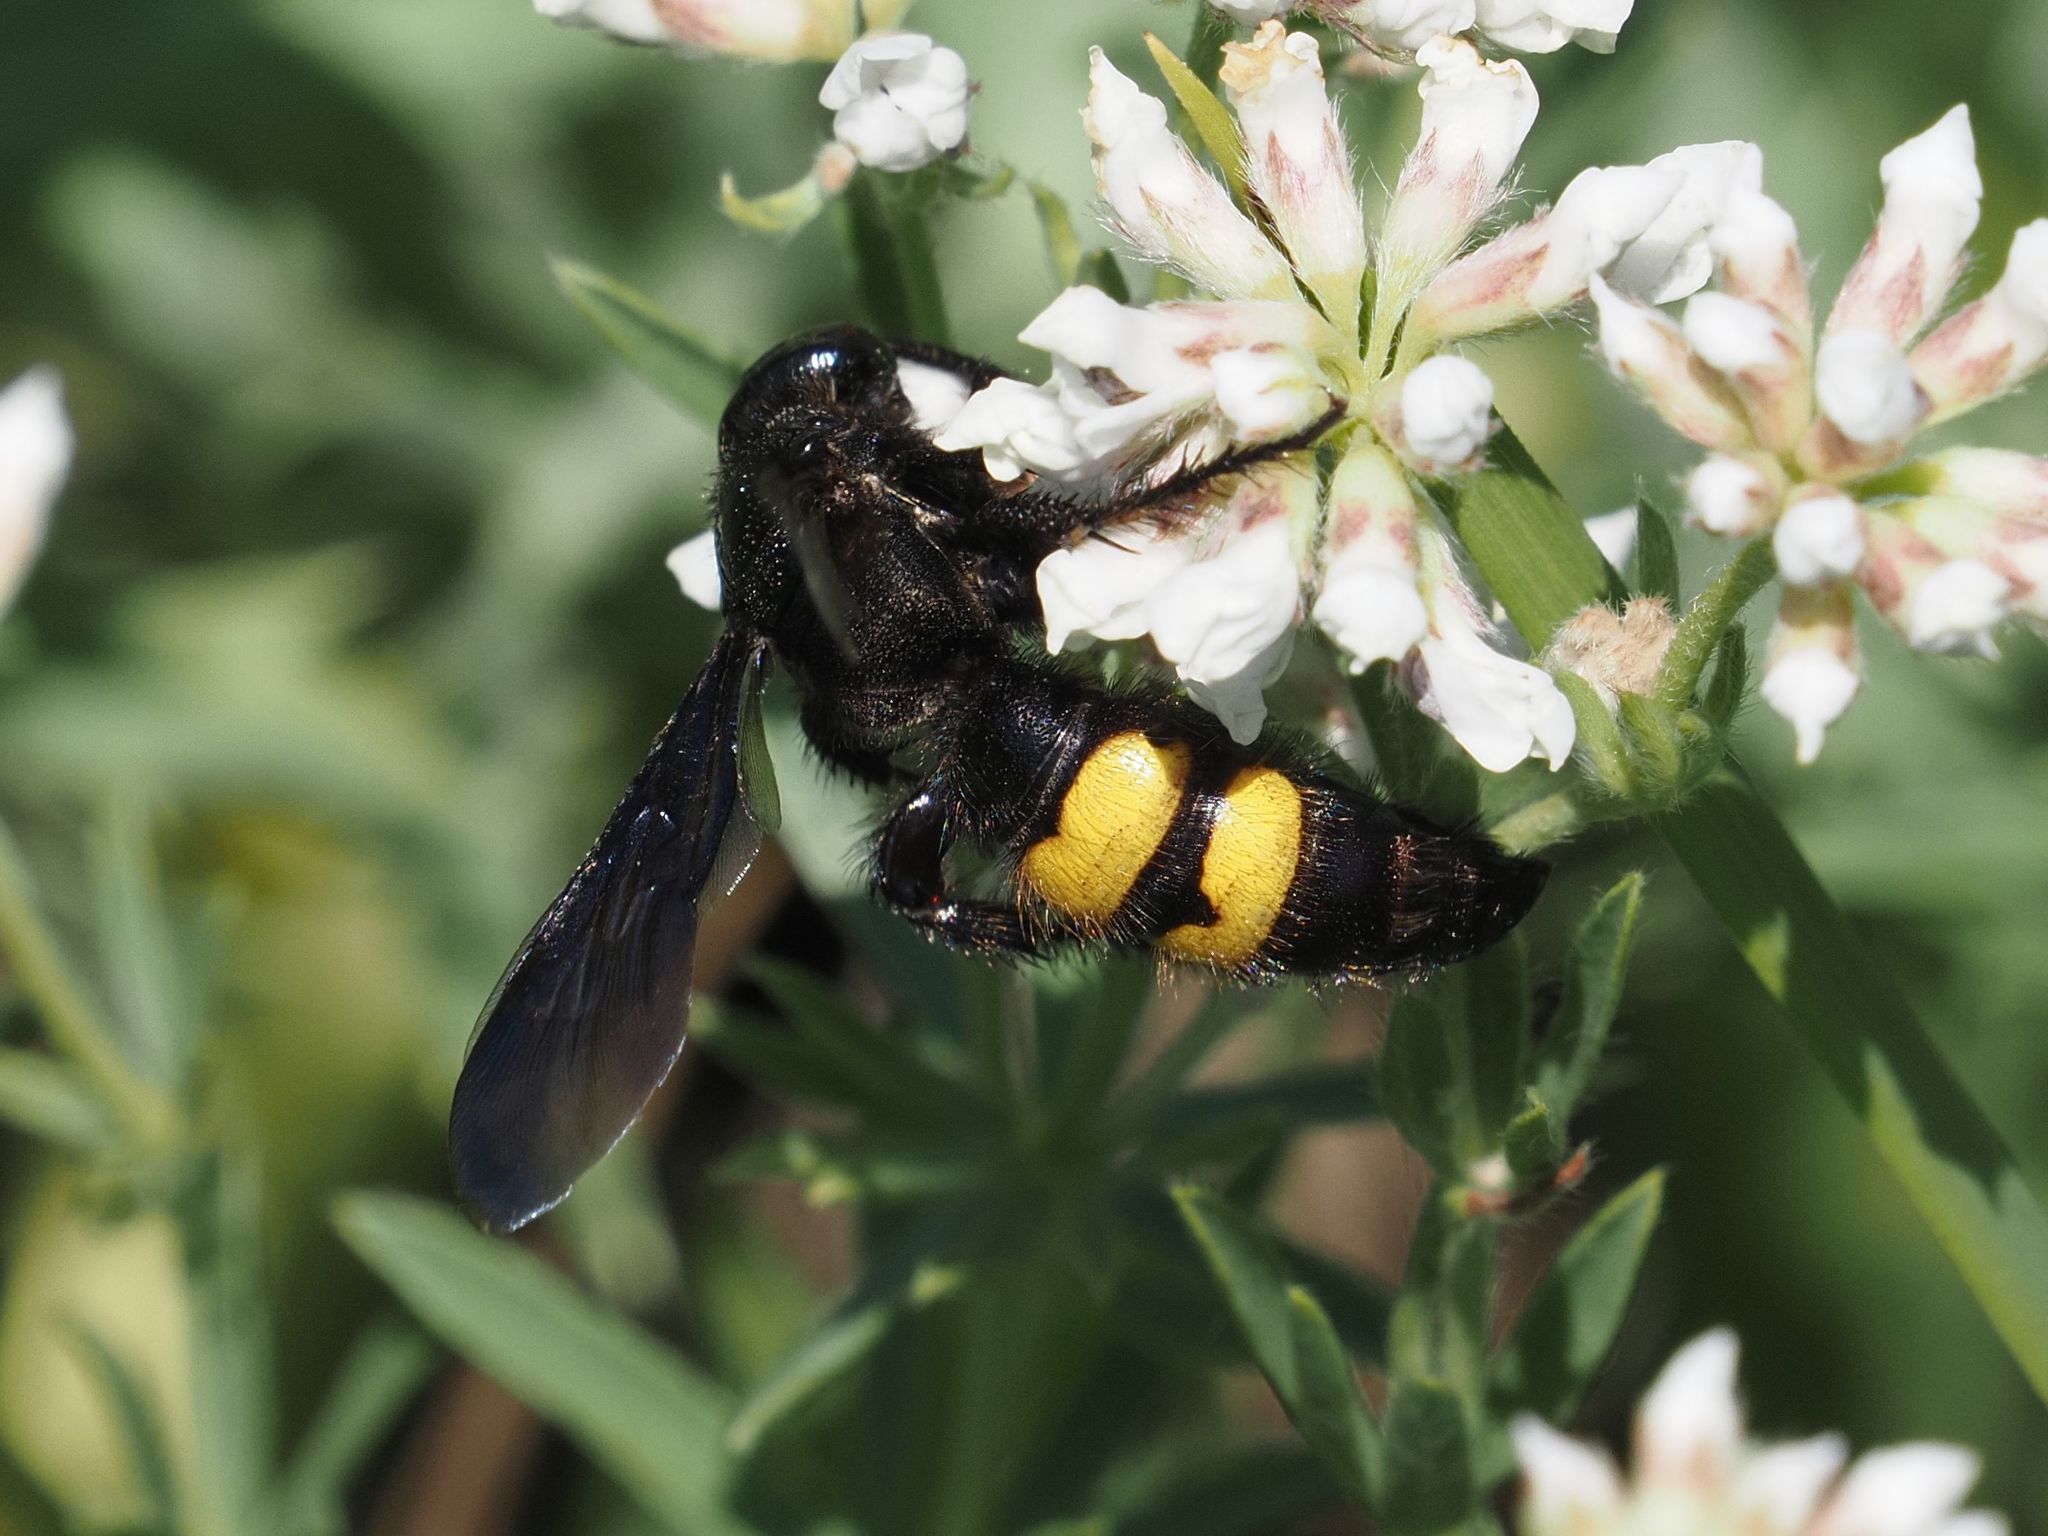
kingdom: Animalia
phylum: Arthropoda
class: Insecta
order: Hymenoptera
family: Scoliidae
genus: Scolia
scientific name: Scolia hirta
